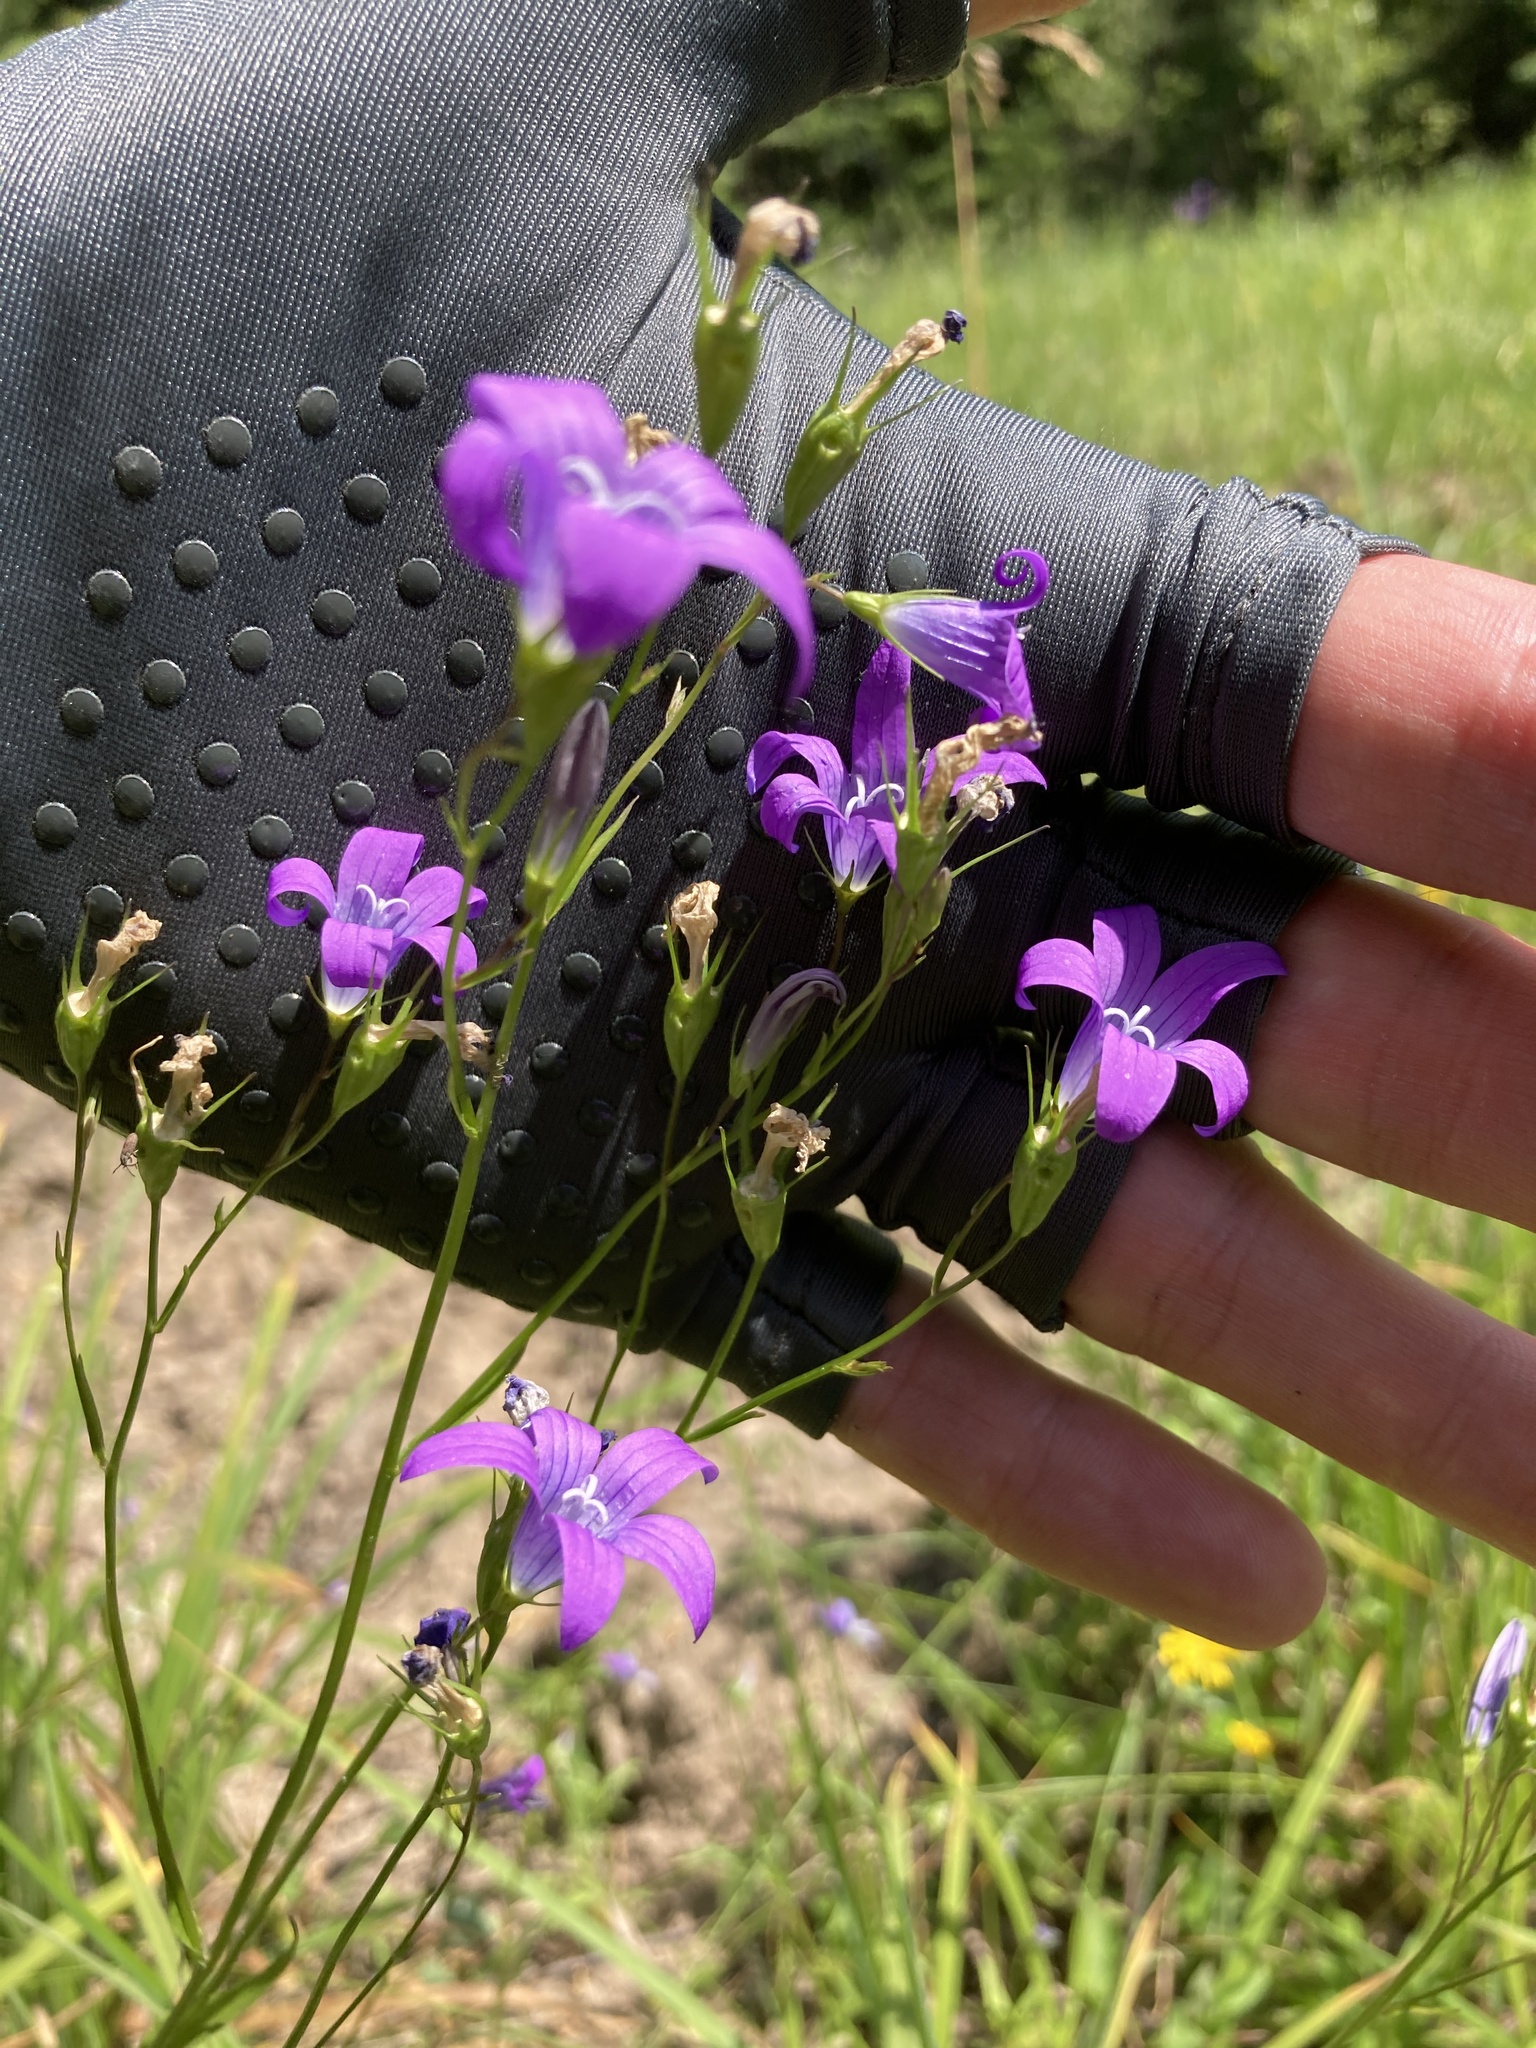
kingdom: Plantae
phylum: Tracheophyta
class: Magnoliopsida
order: Asterales
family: Campanulaceae
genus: Campanula
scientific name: Campanula patula
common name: Spreading bellflower
